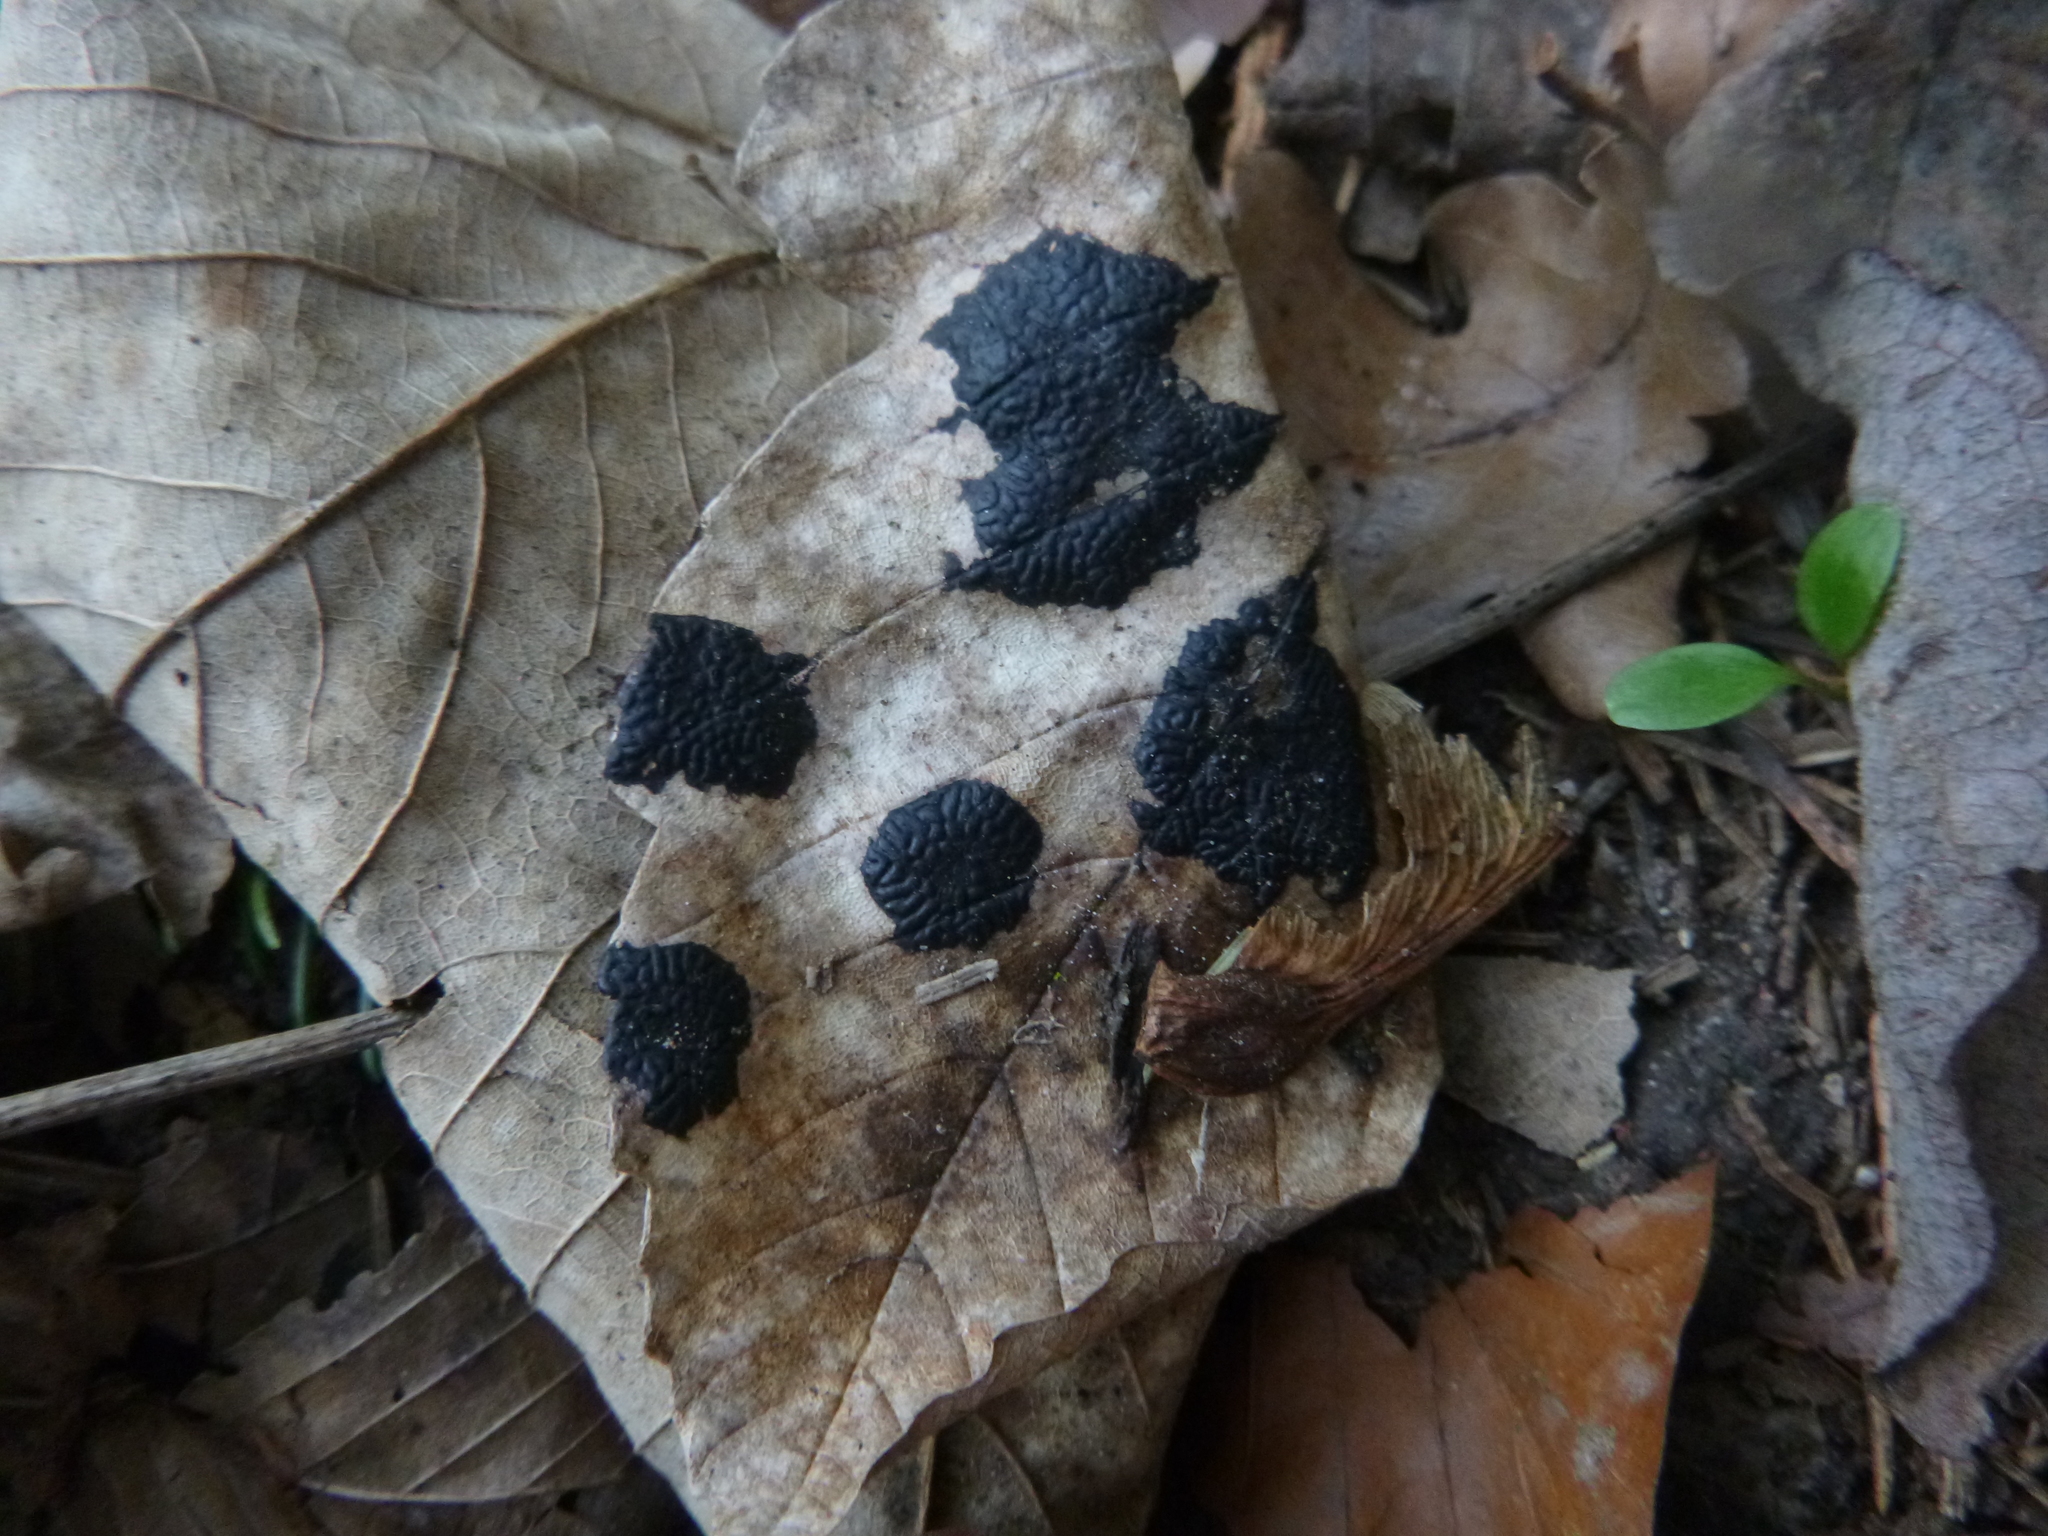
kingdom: Fungi
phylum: Ascomycota
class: Leotiomycetes
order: Rhytismatales
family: Rhytismataceae
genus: Rhytisma
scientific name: Rhytisma acerinum
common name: European tar spot
